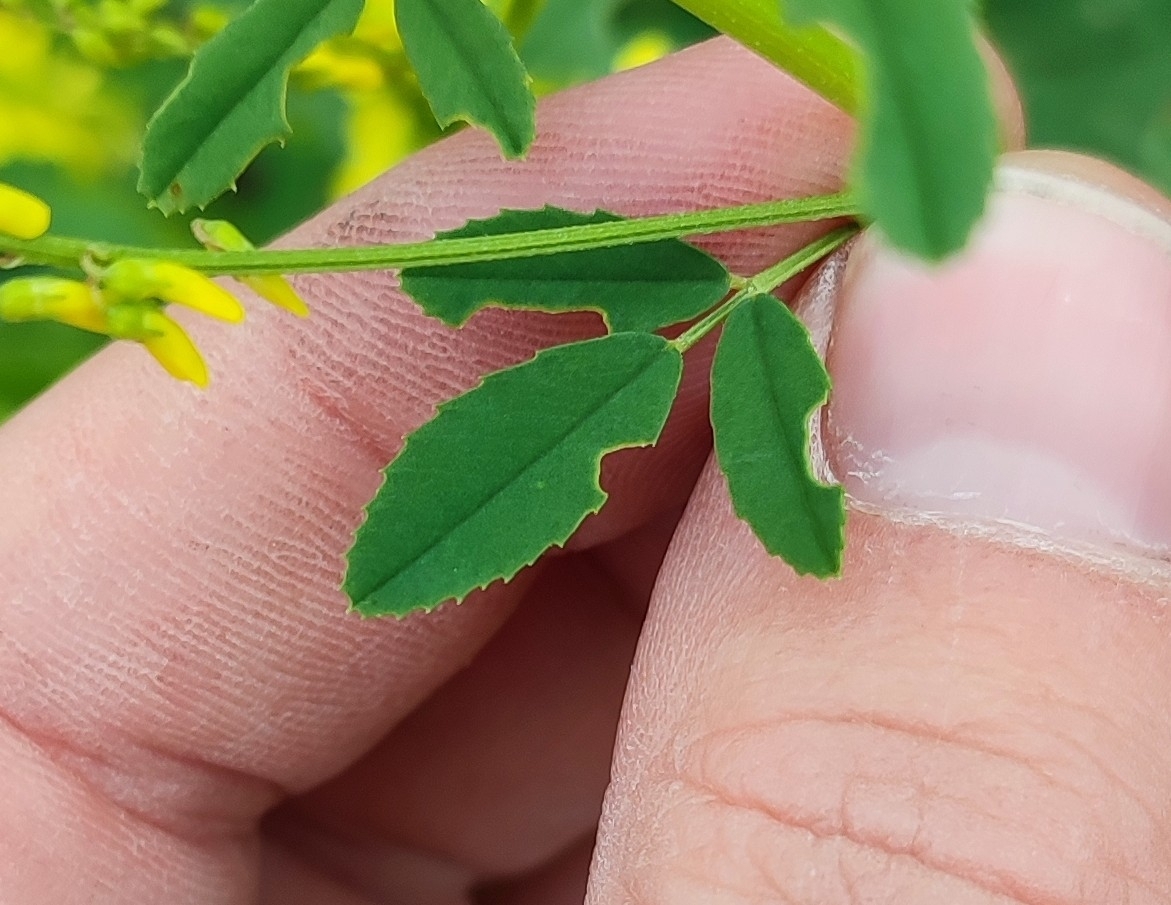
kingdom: Plantae
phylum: Tracheophyta
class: Magnoliopsida
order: Fabales
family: Fabaceae
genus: Melilotus
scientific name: Melilotus officinalis
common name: Sweetclover
